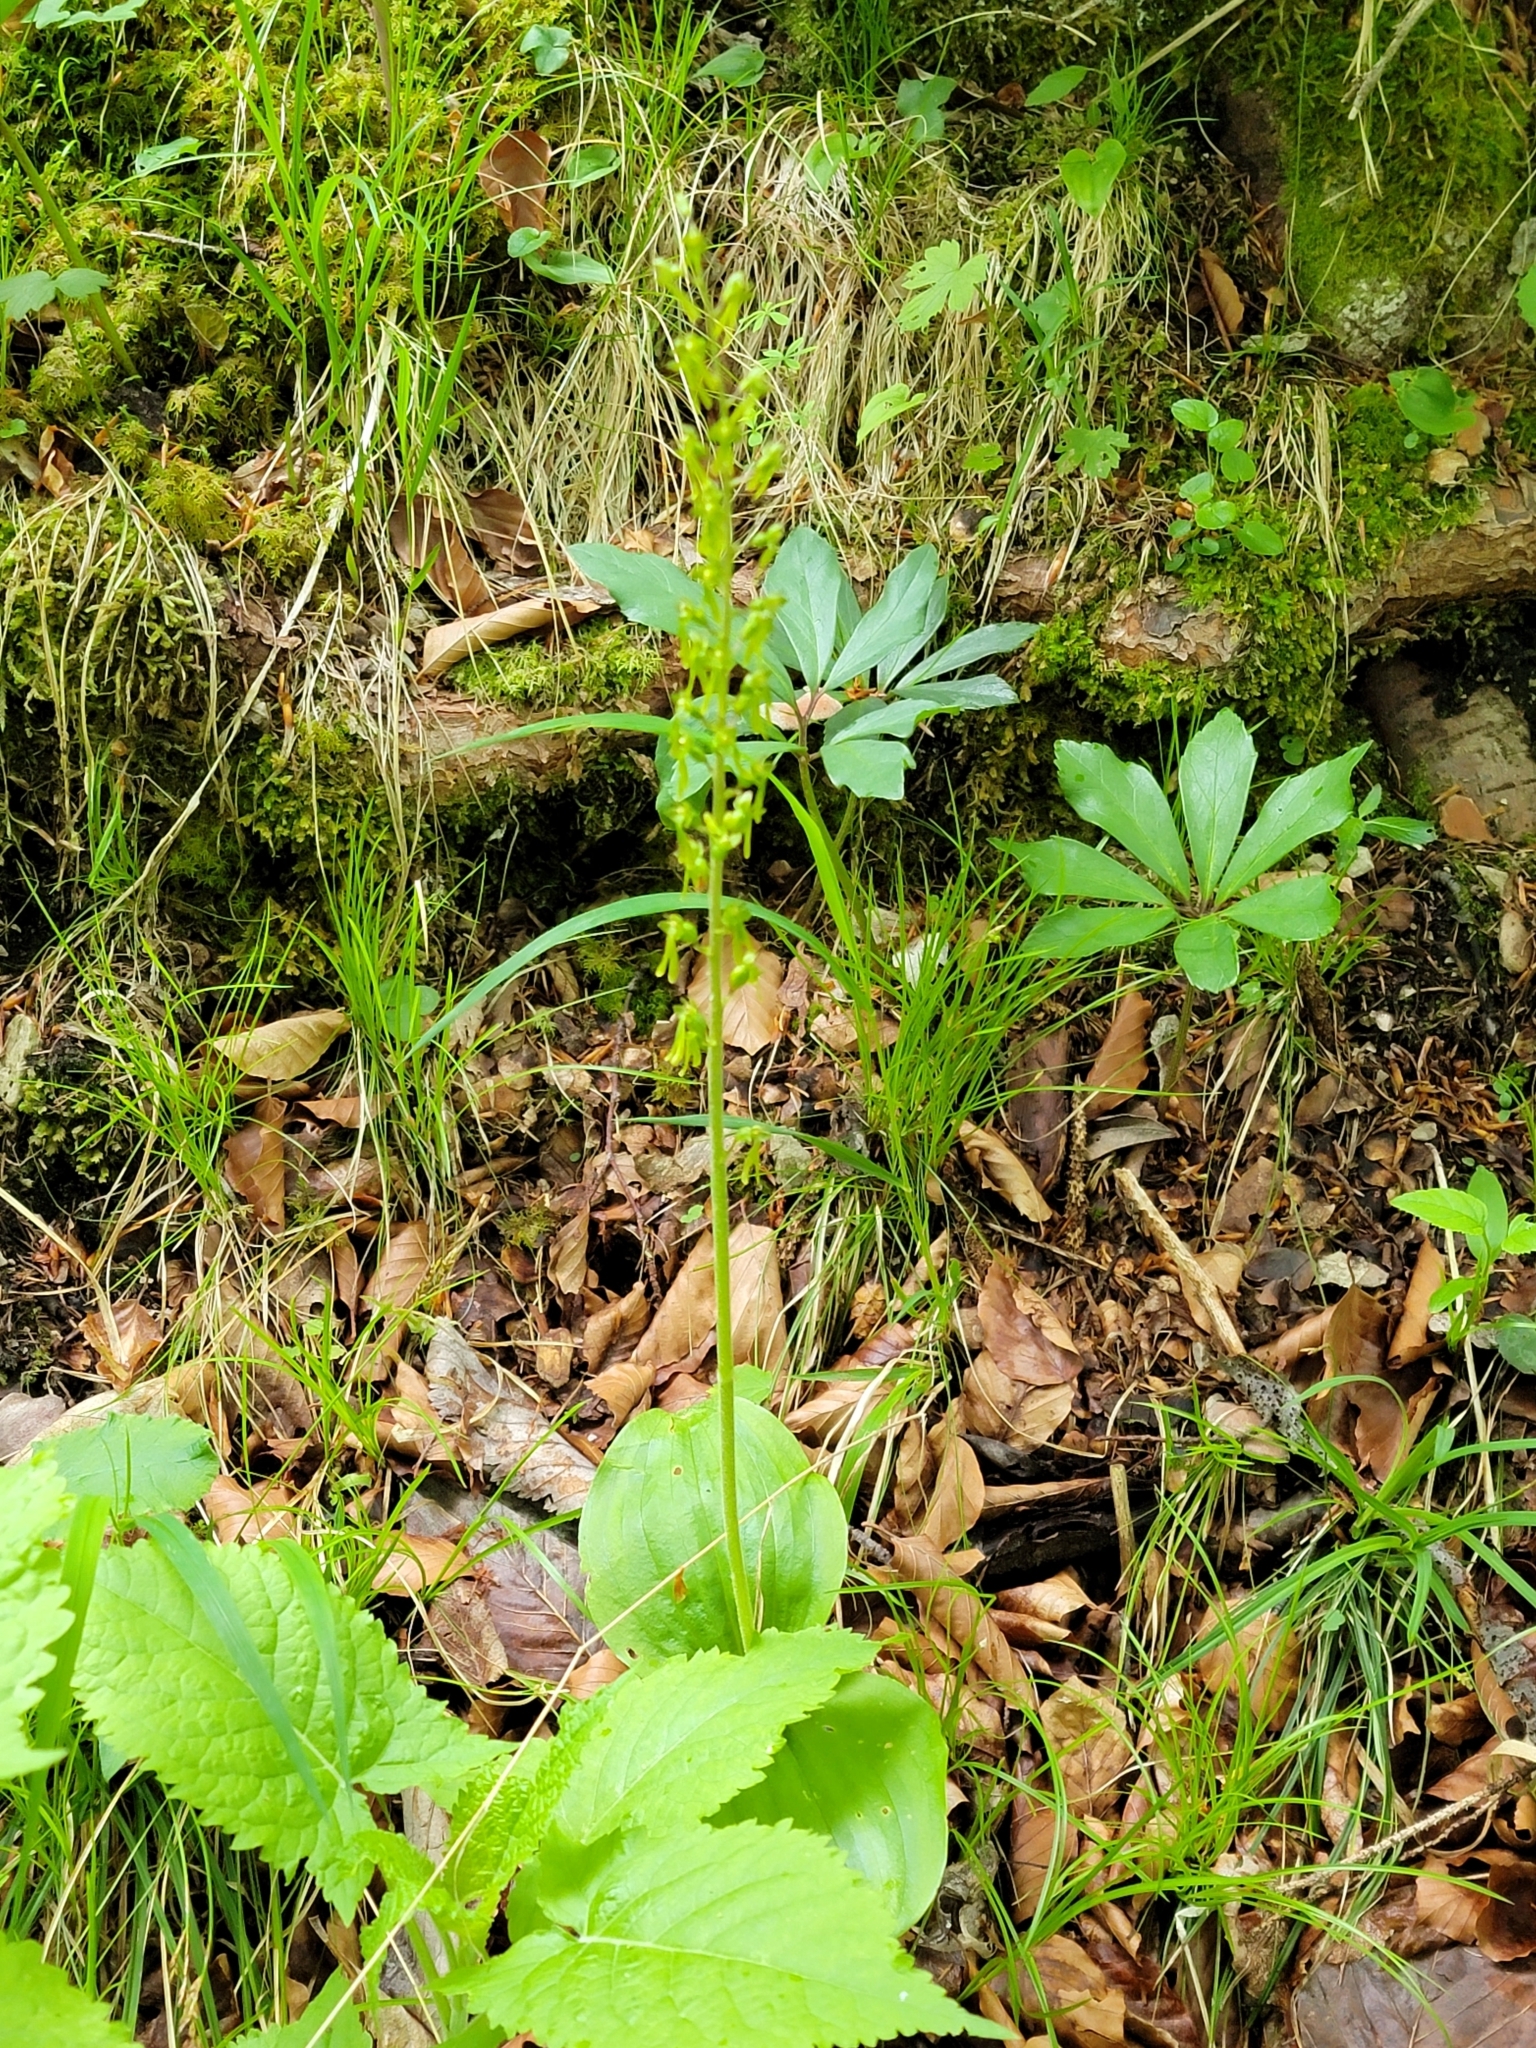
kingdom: Plantae
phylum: Tracheophyta
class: Liliopsida
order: Asparagales
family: Orchidaceae
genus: Neottia
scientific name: Neottia ovata
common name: Common twayblade
